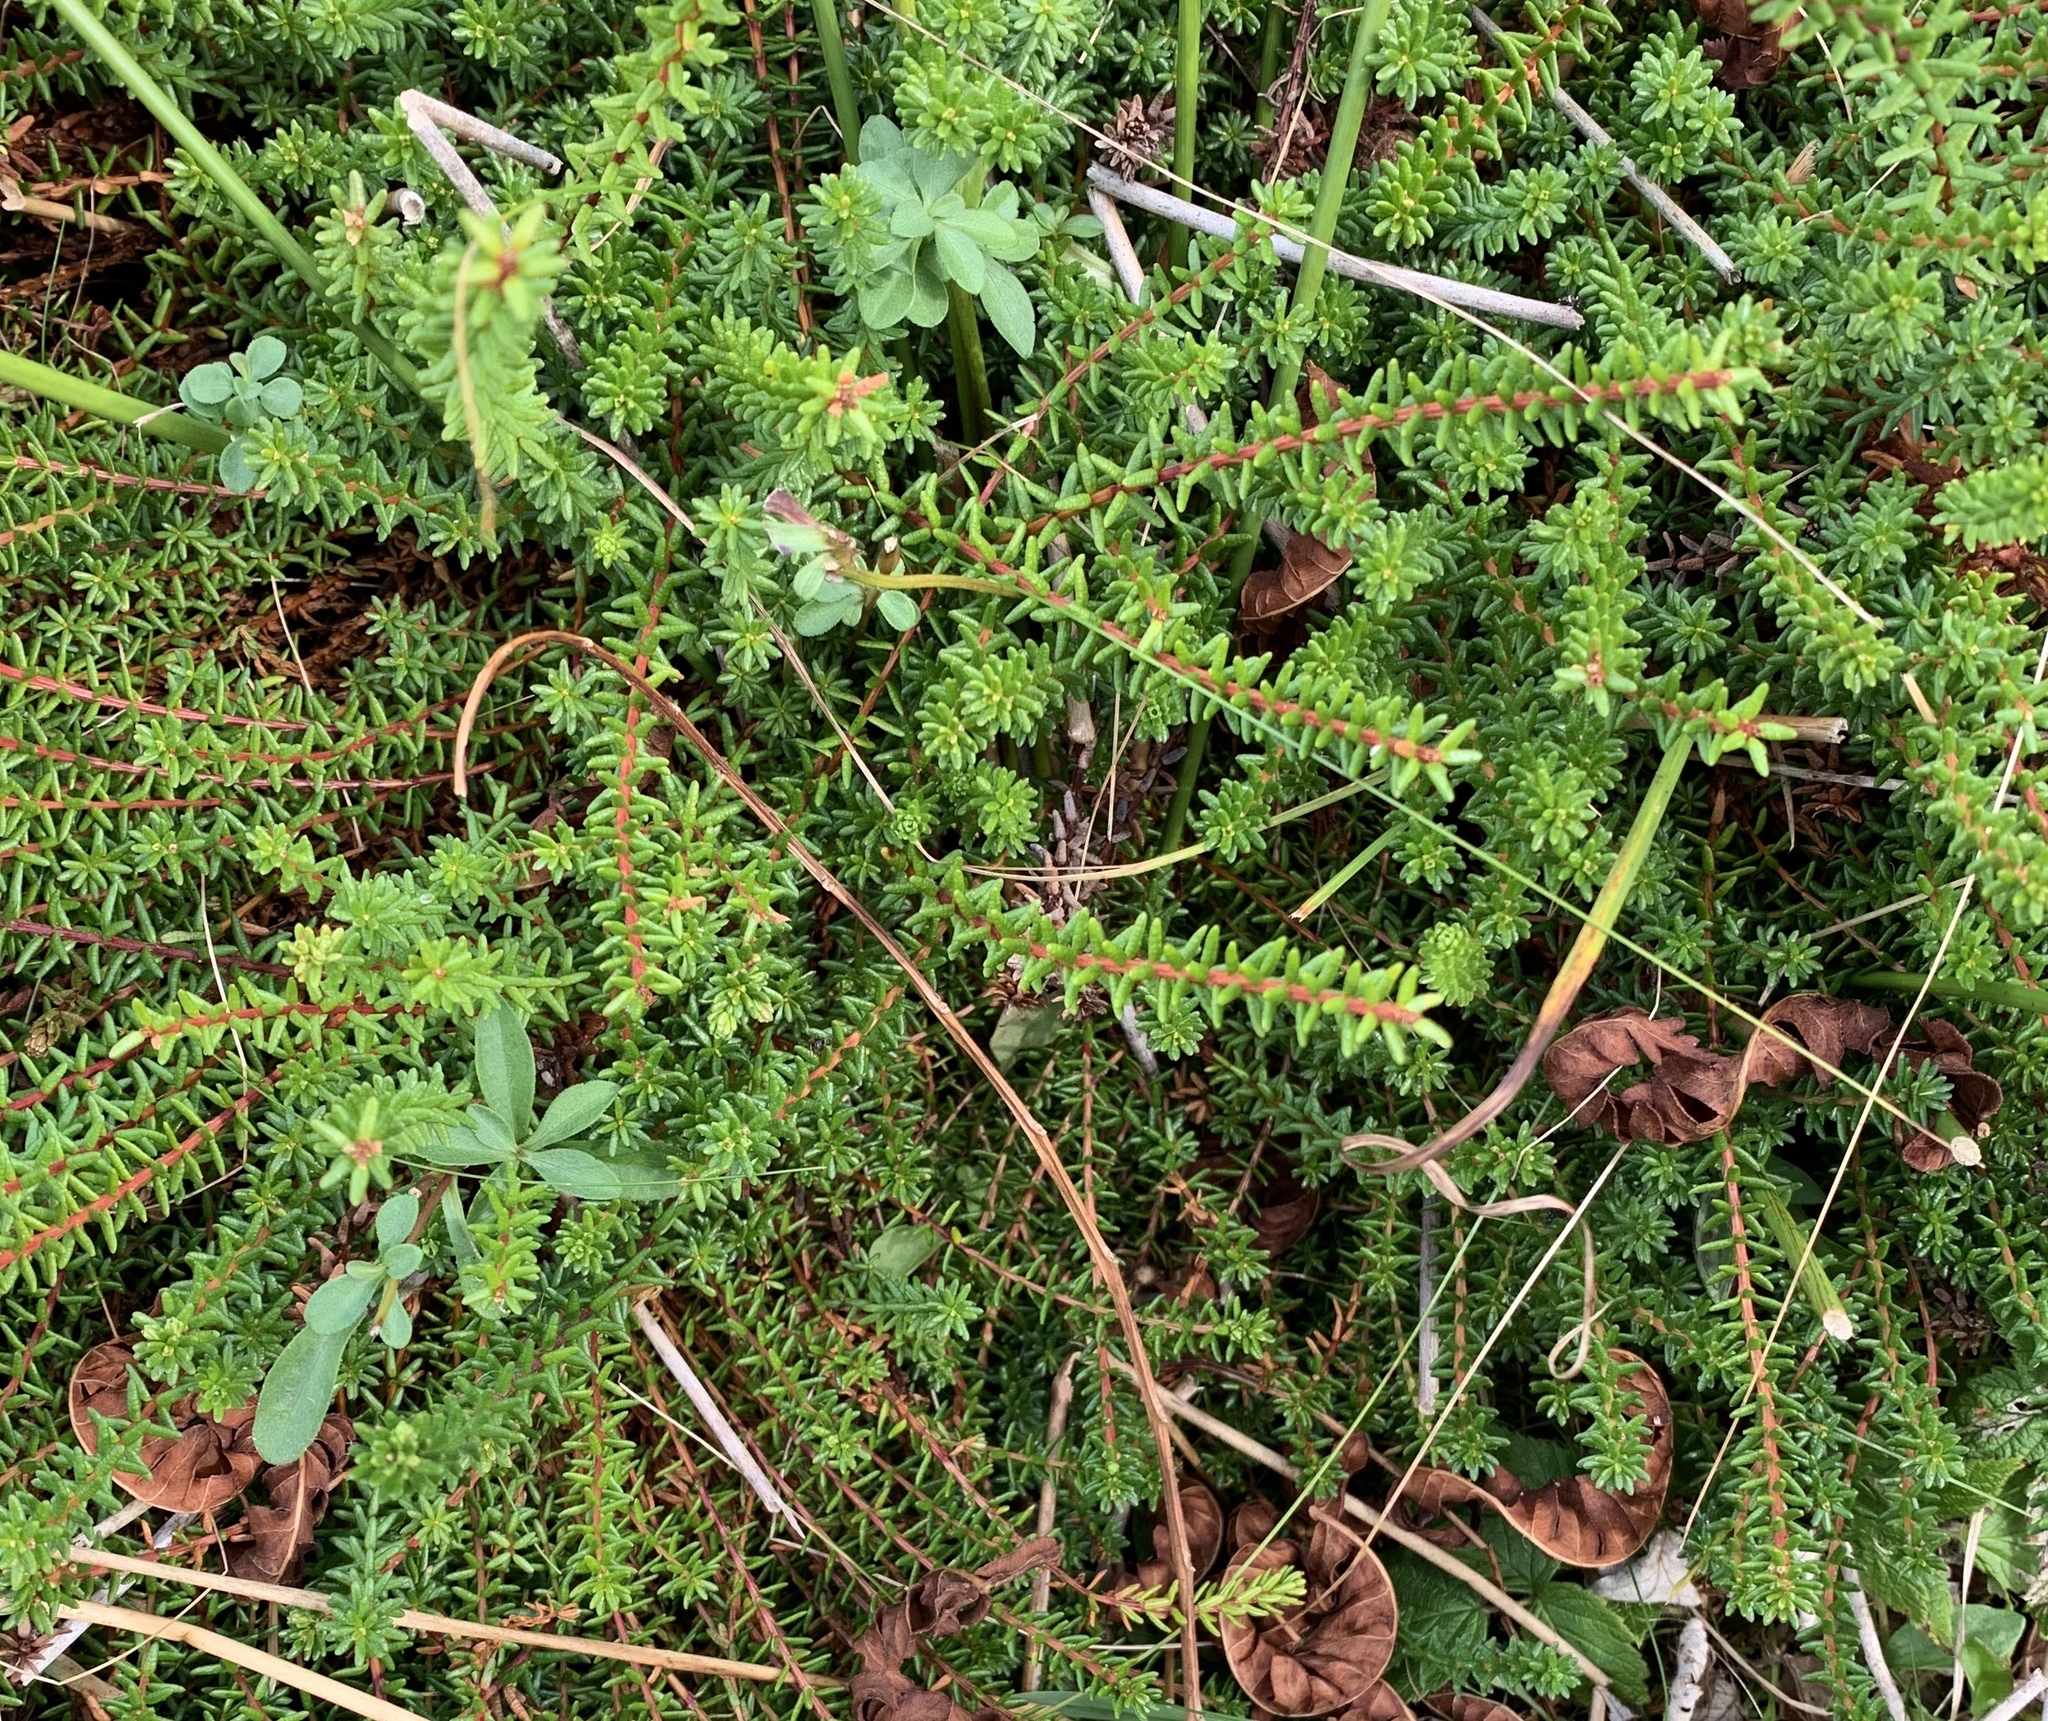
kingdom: Plantae
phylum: Tracheophyta
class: Magnoliopsida
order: Ericales
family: Ericaceae
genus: Empetrum
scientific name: Empetrum nigrum
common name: Black crowberry
